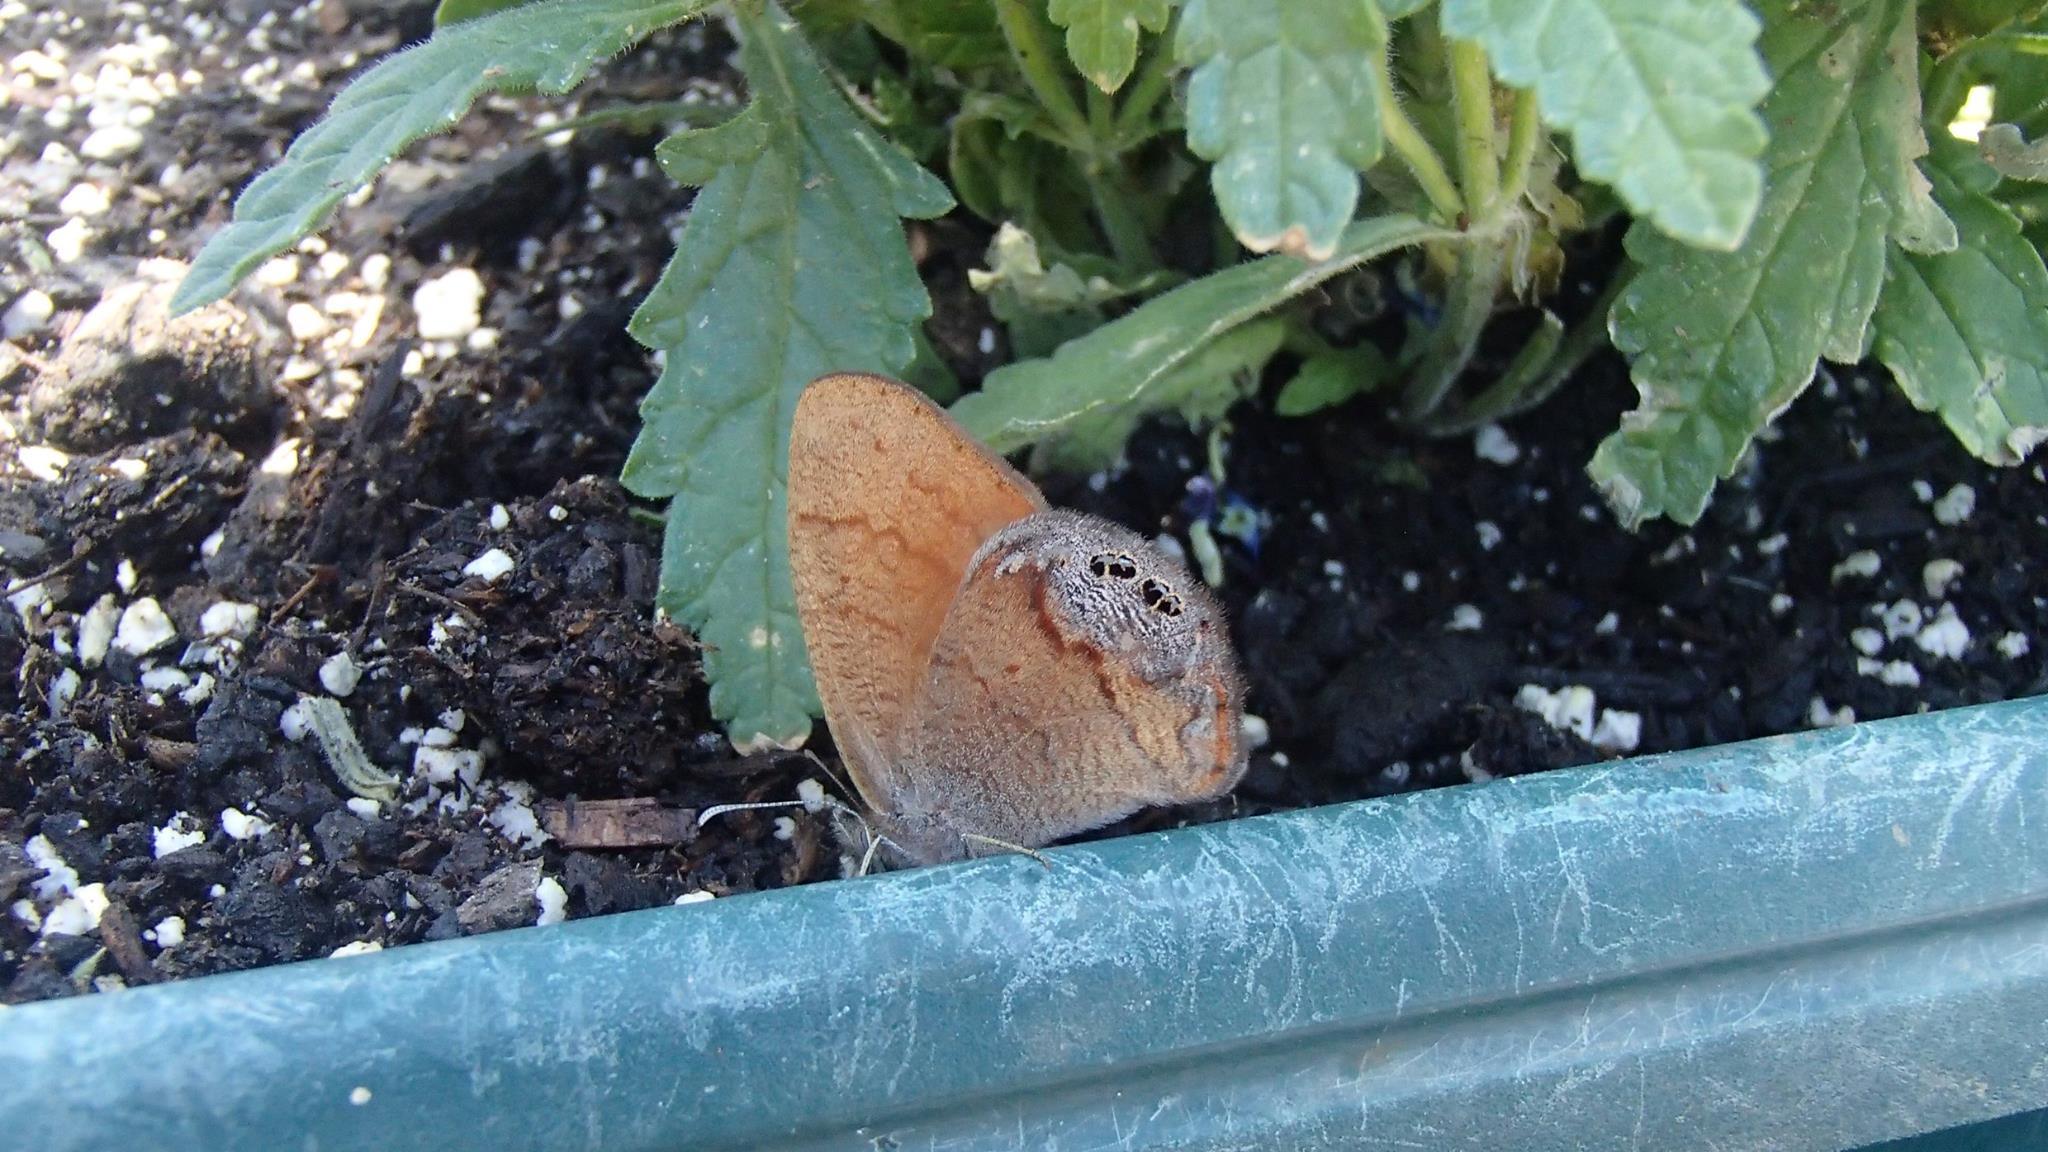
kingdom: Animalia
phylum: Arthropoda
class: Insecta
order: Lepidoptera
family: Nymphalidae
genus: Euptychia
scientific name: Euptychia dorothea
